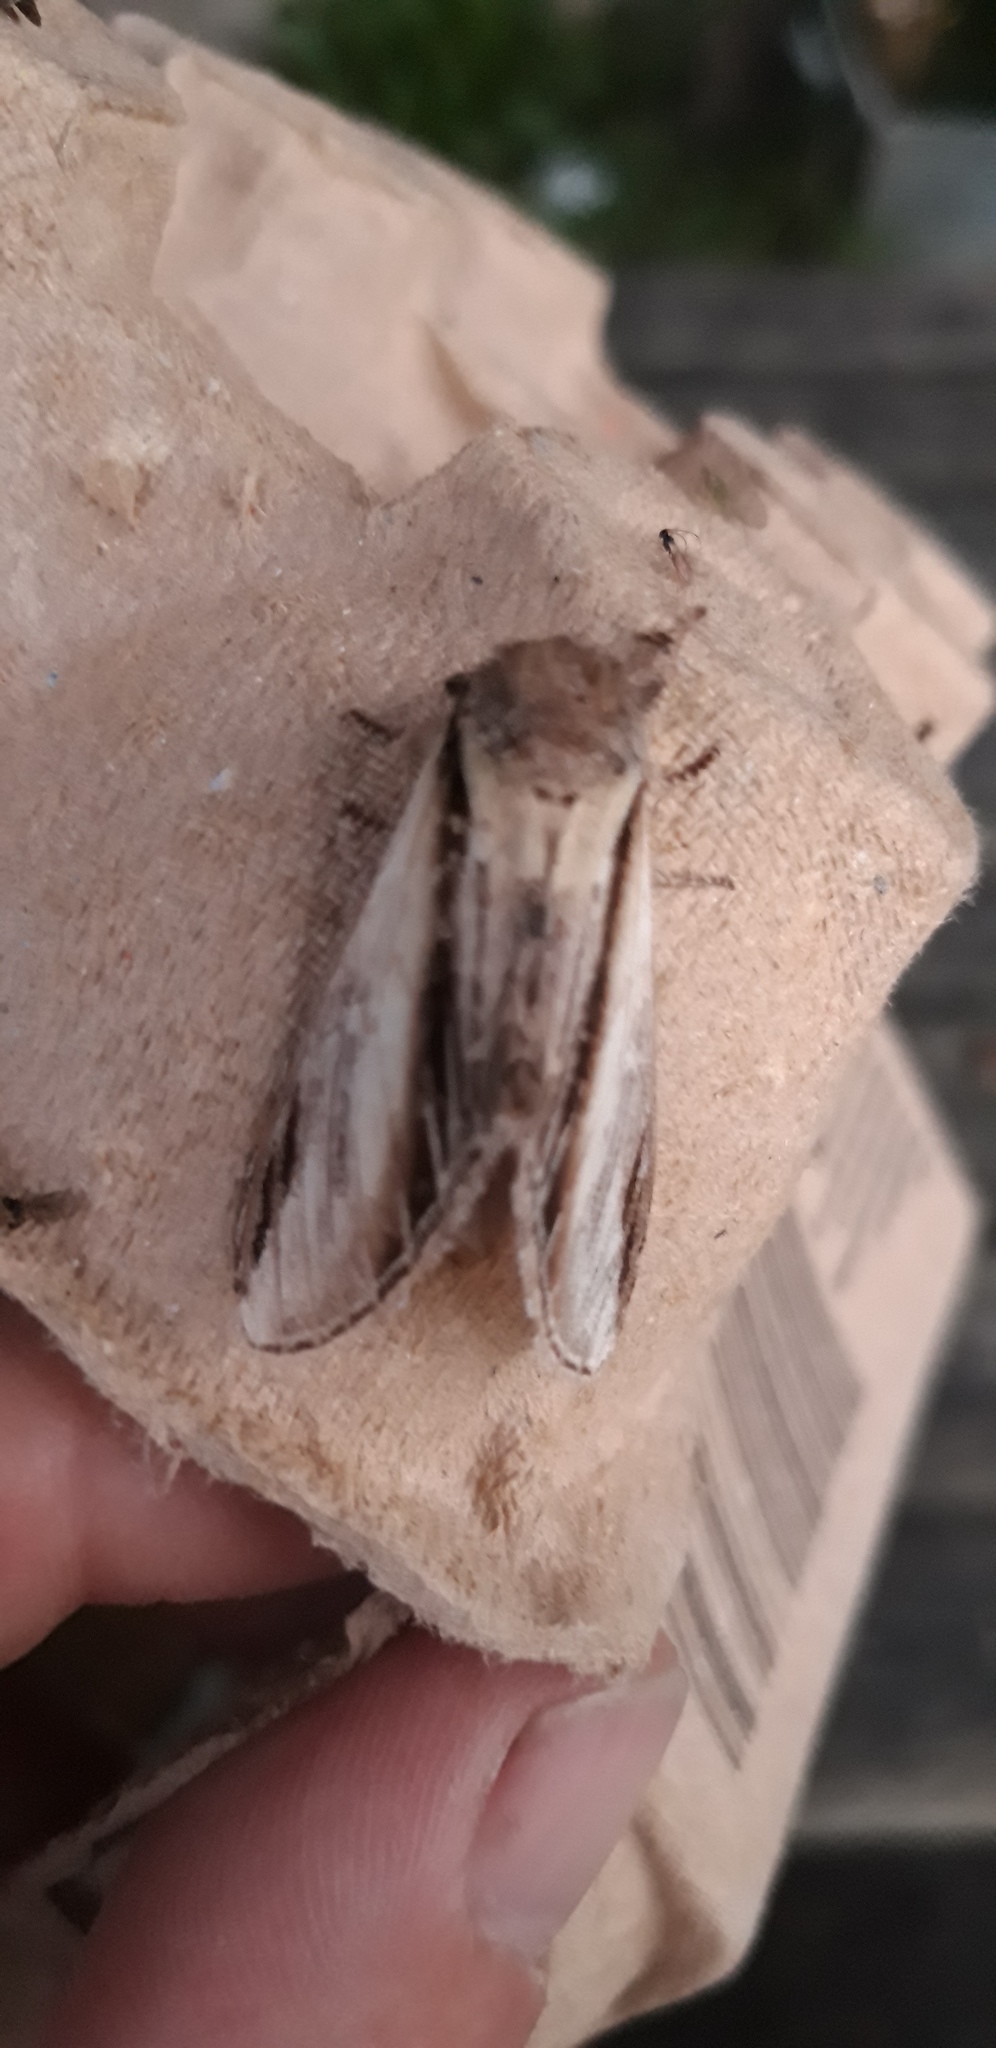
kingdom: Animalia
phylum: Arthropoda
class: Insecta
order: Lepidoptera
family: Notodontidae
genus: Pheosia
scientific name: Pheosia tremula
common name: Swallow prominent
